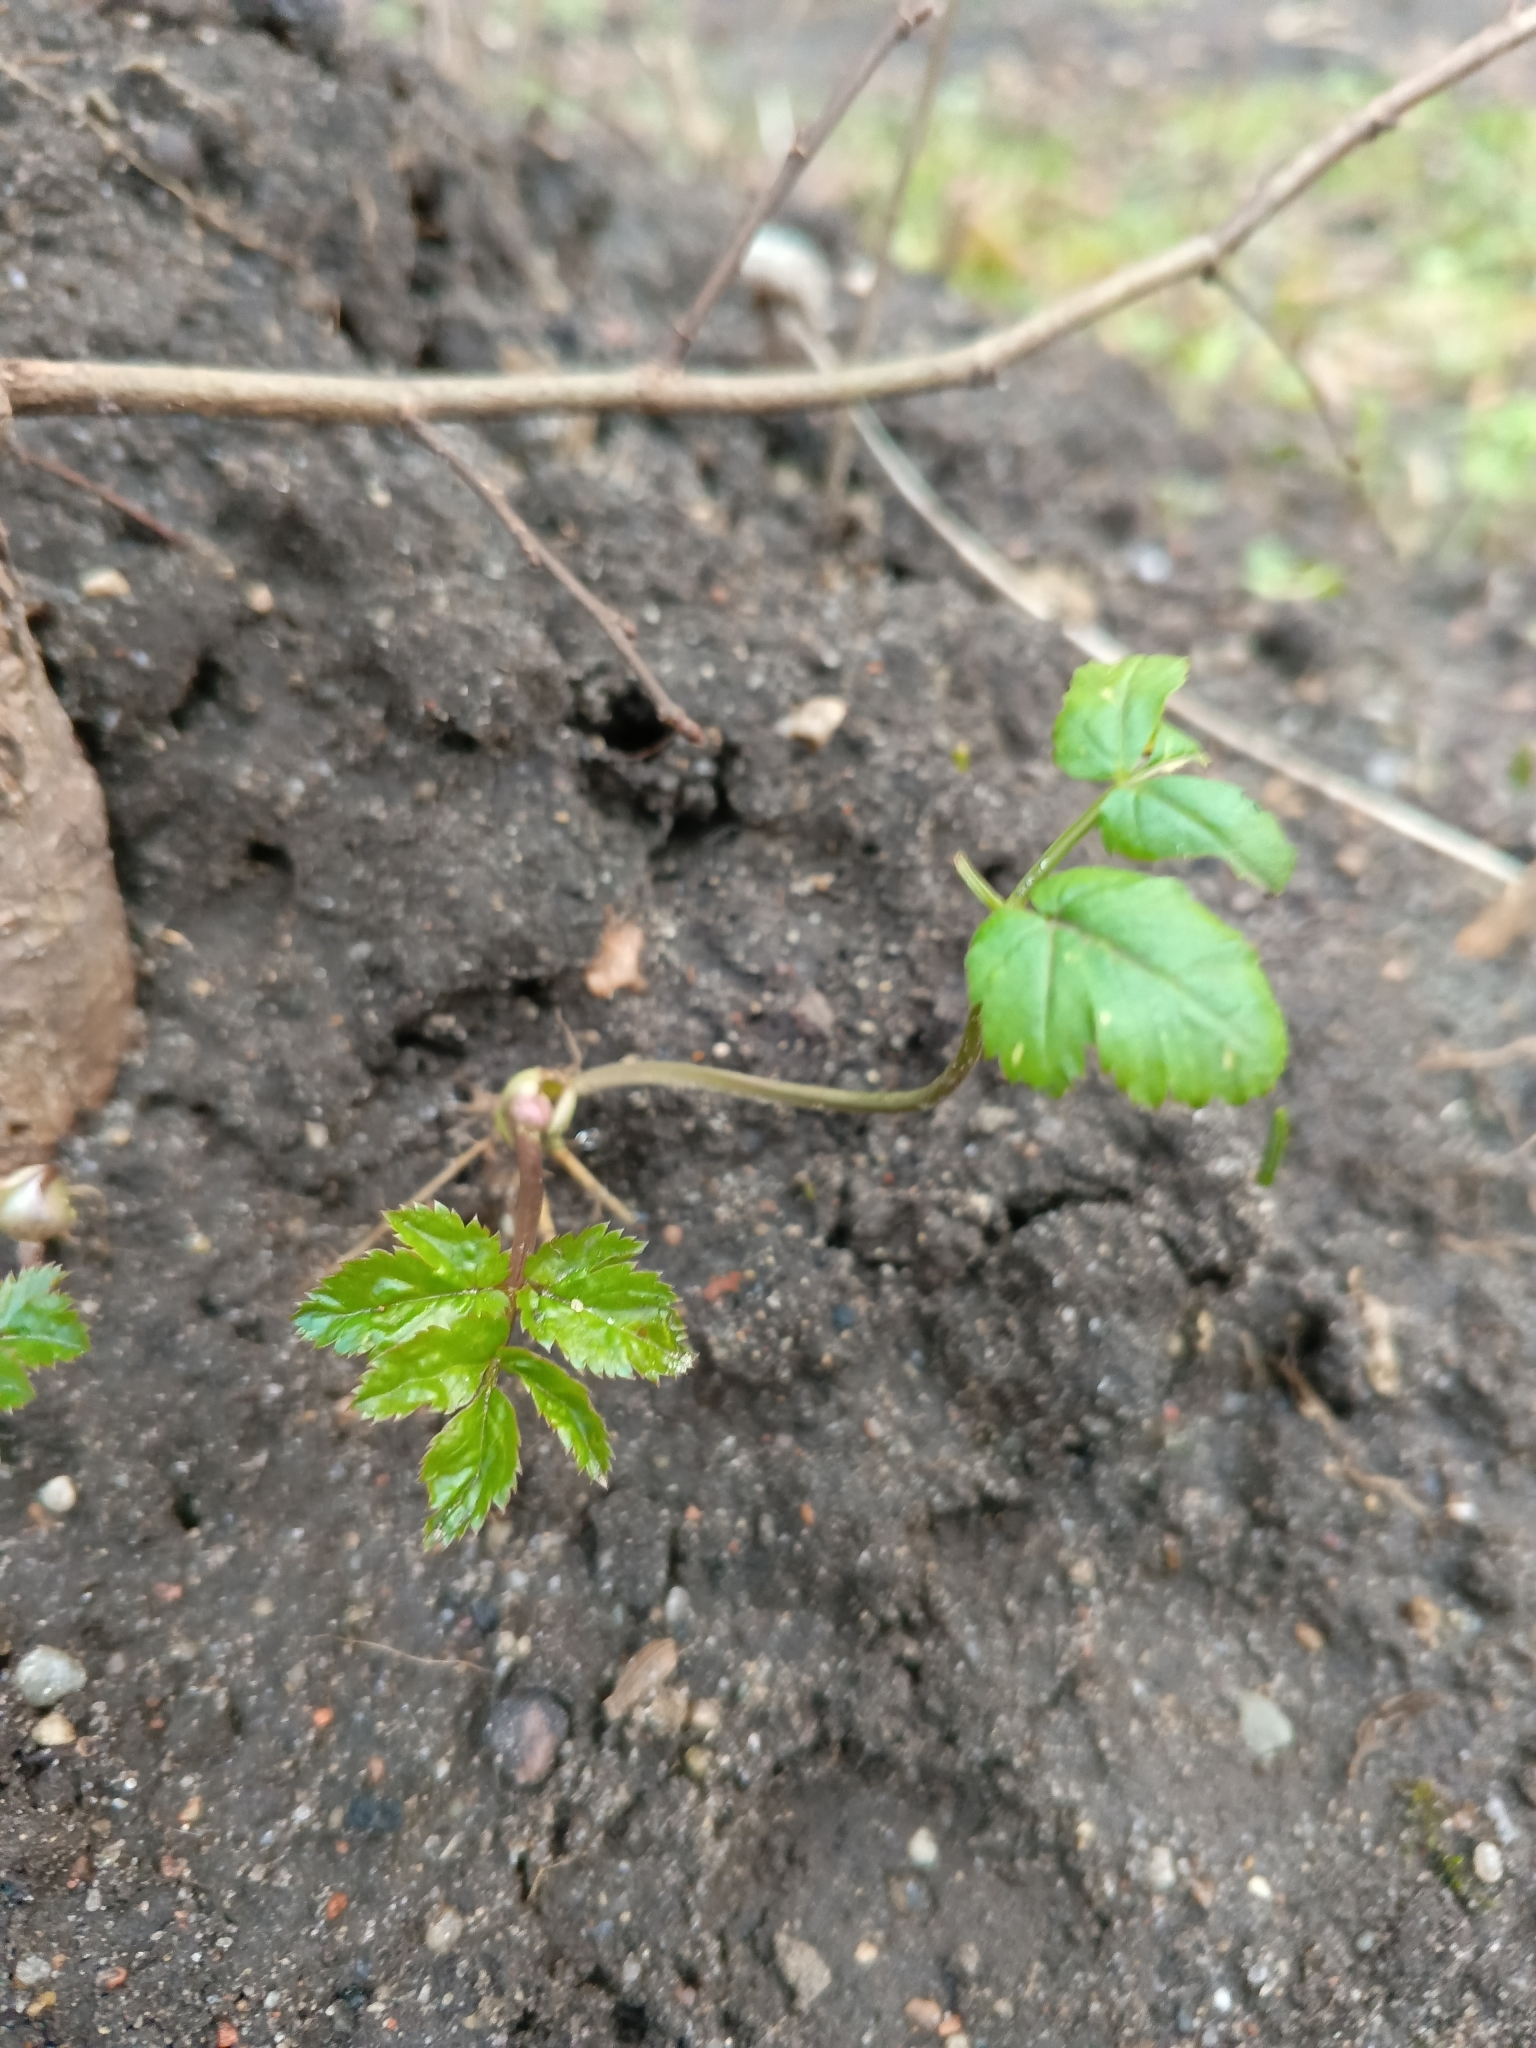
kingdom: Plantae
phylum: Tracheophyta
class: Magnoliopsida
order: Apiales
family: Apiaceae
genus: Aegopodium
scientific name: Aegopodium podagraria
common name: Ground-elder
